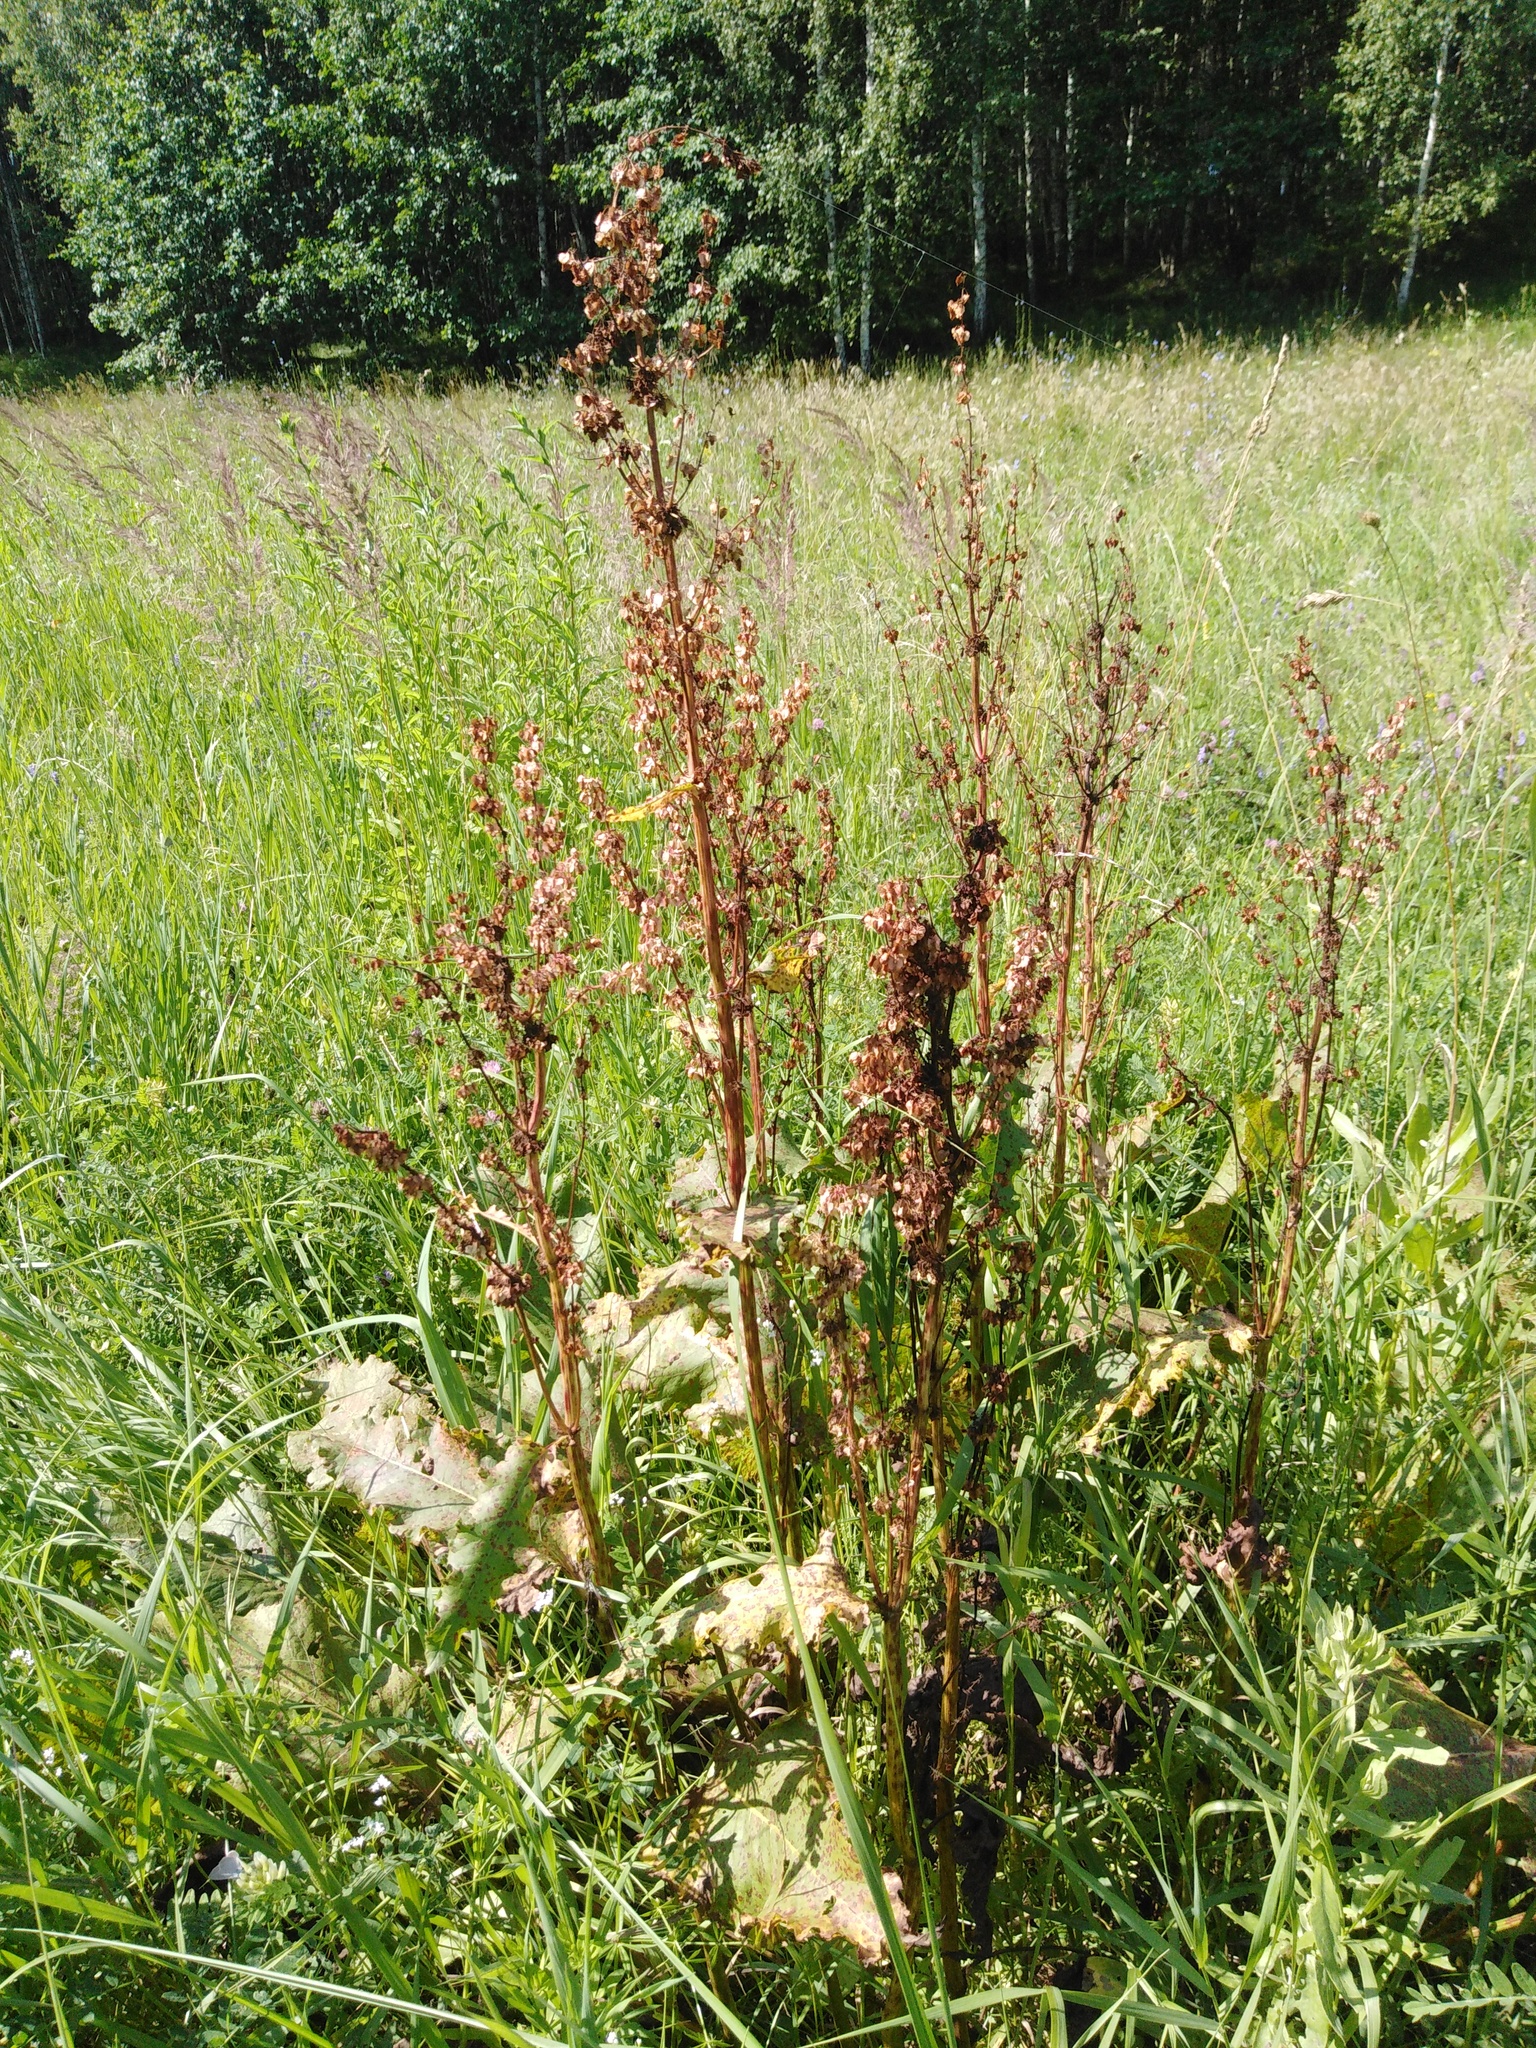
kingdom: Plantae
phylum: Tracheophyta
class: Magnoliopsida
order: Caryophyllales
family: Polygonaceae
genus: Rumex
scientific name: Rumex confertus
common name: Russian dock
